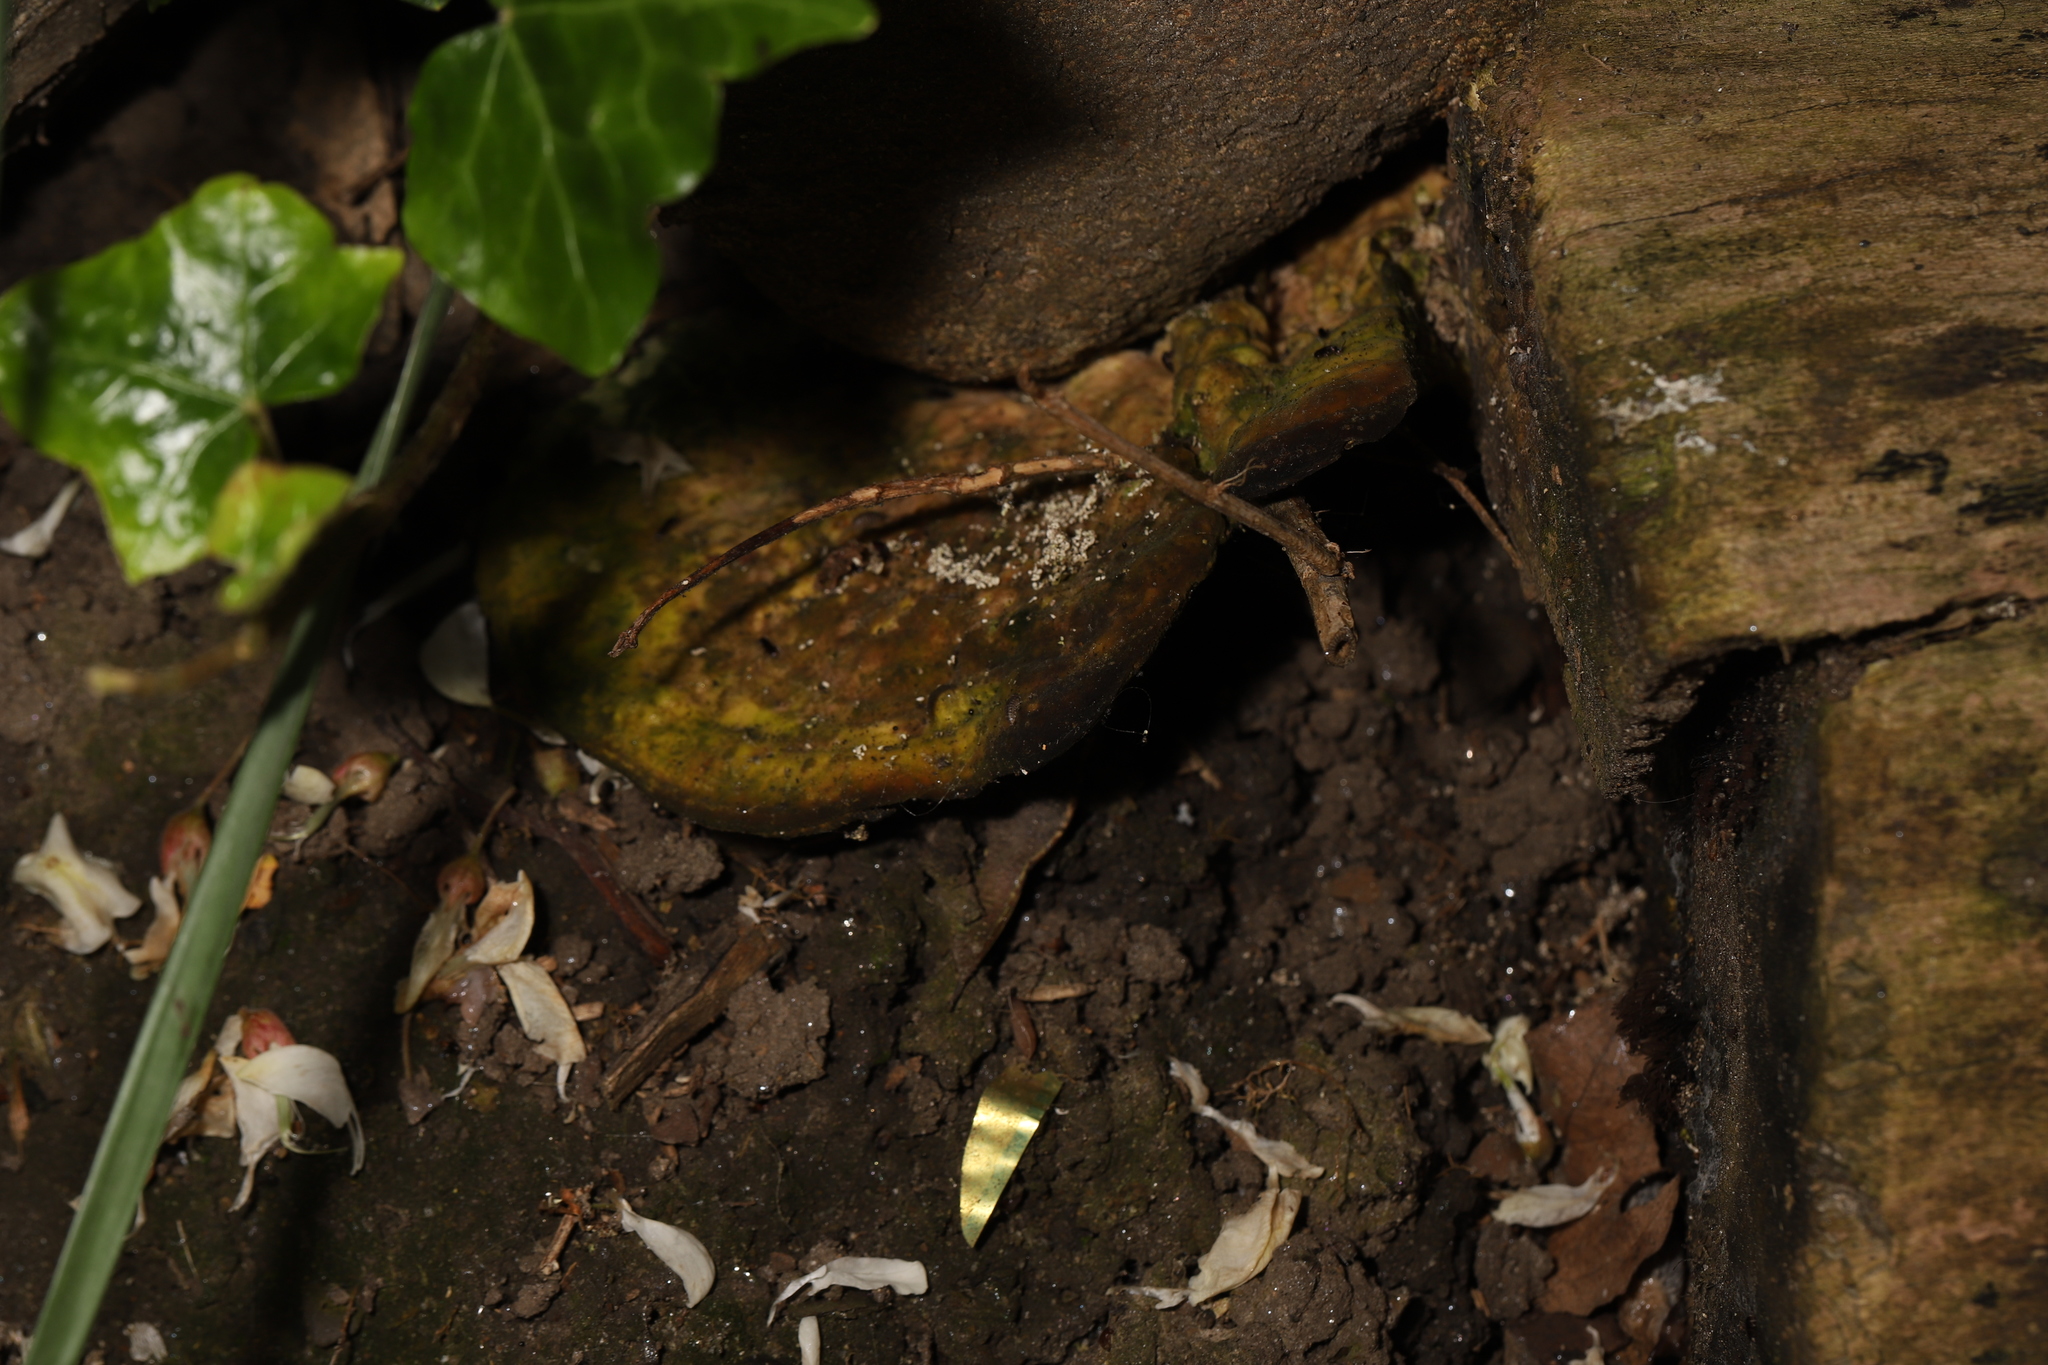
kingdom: Fungi
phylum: Basidiomycota
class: Agaricomycetes
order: Polyporales
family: Polyporaceae
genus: Trametes
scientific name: Trametes gibbosa
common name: Lumpy bracket
